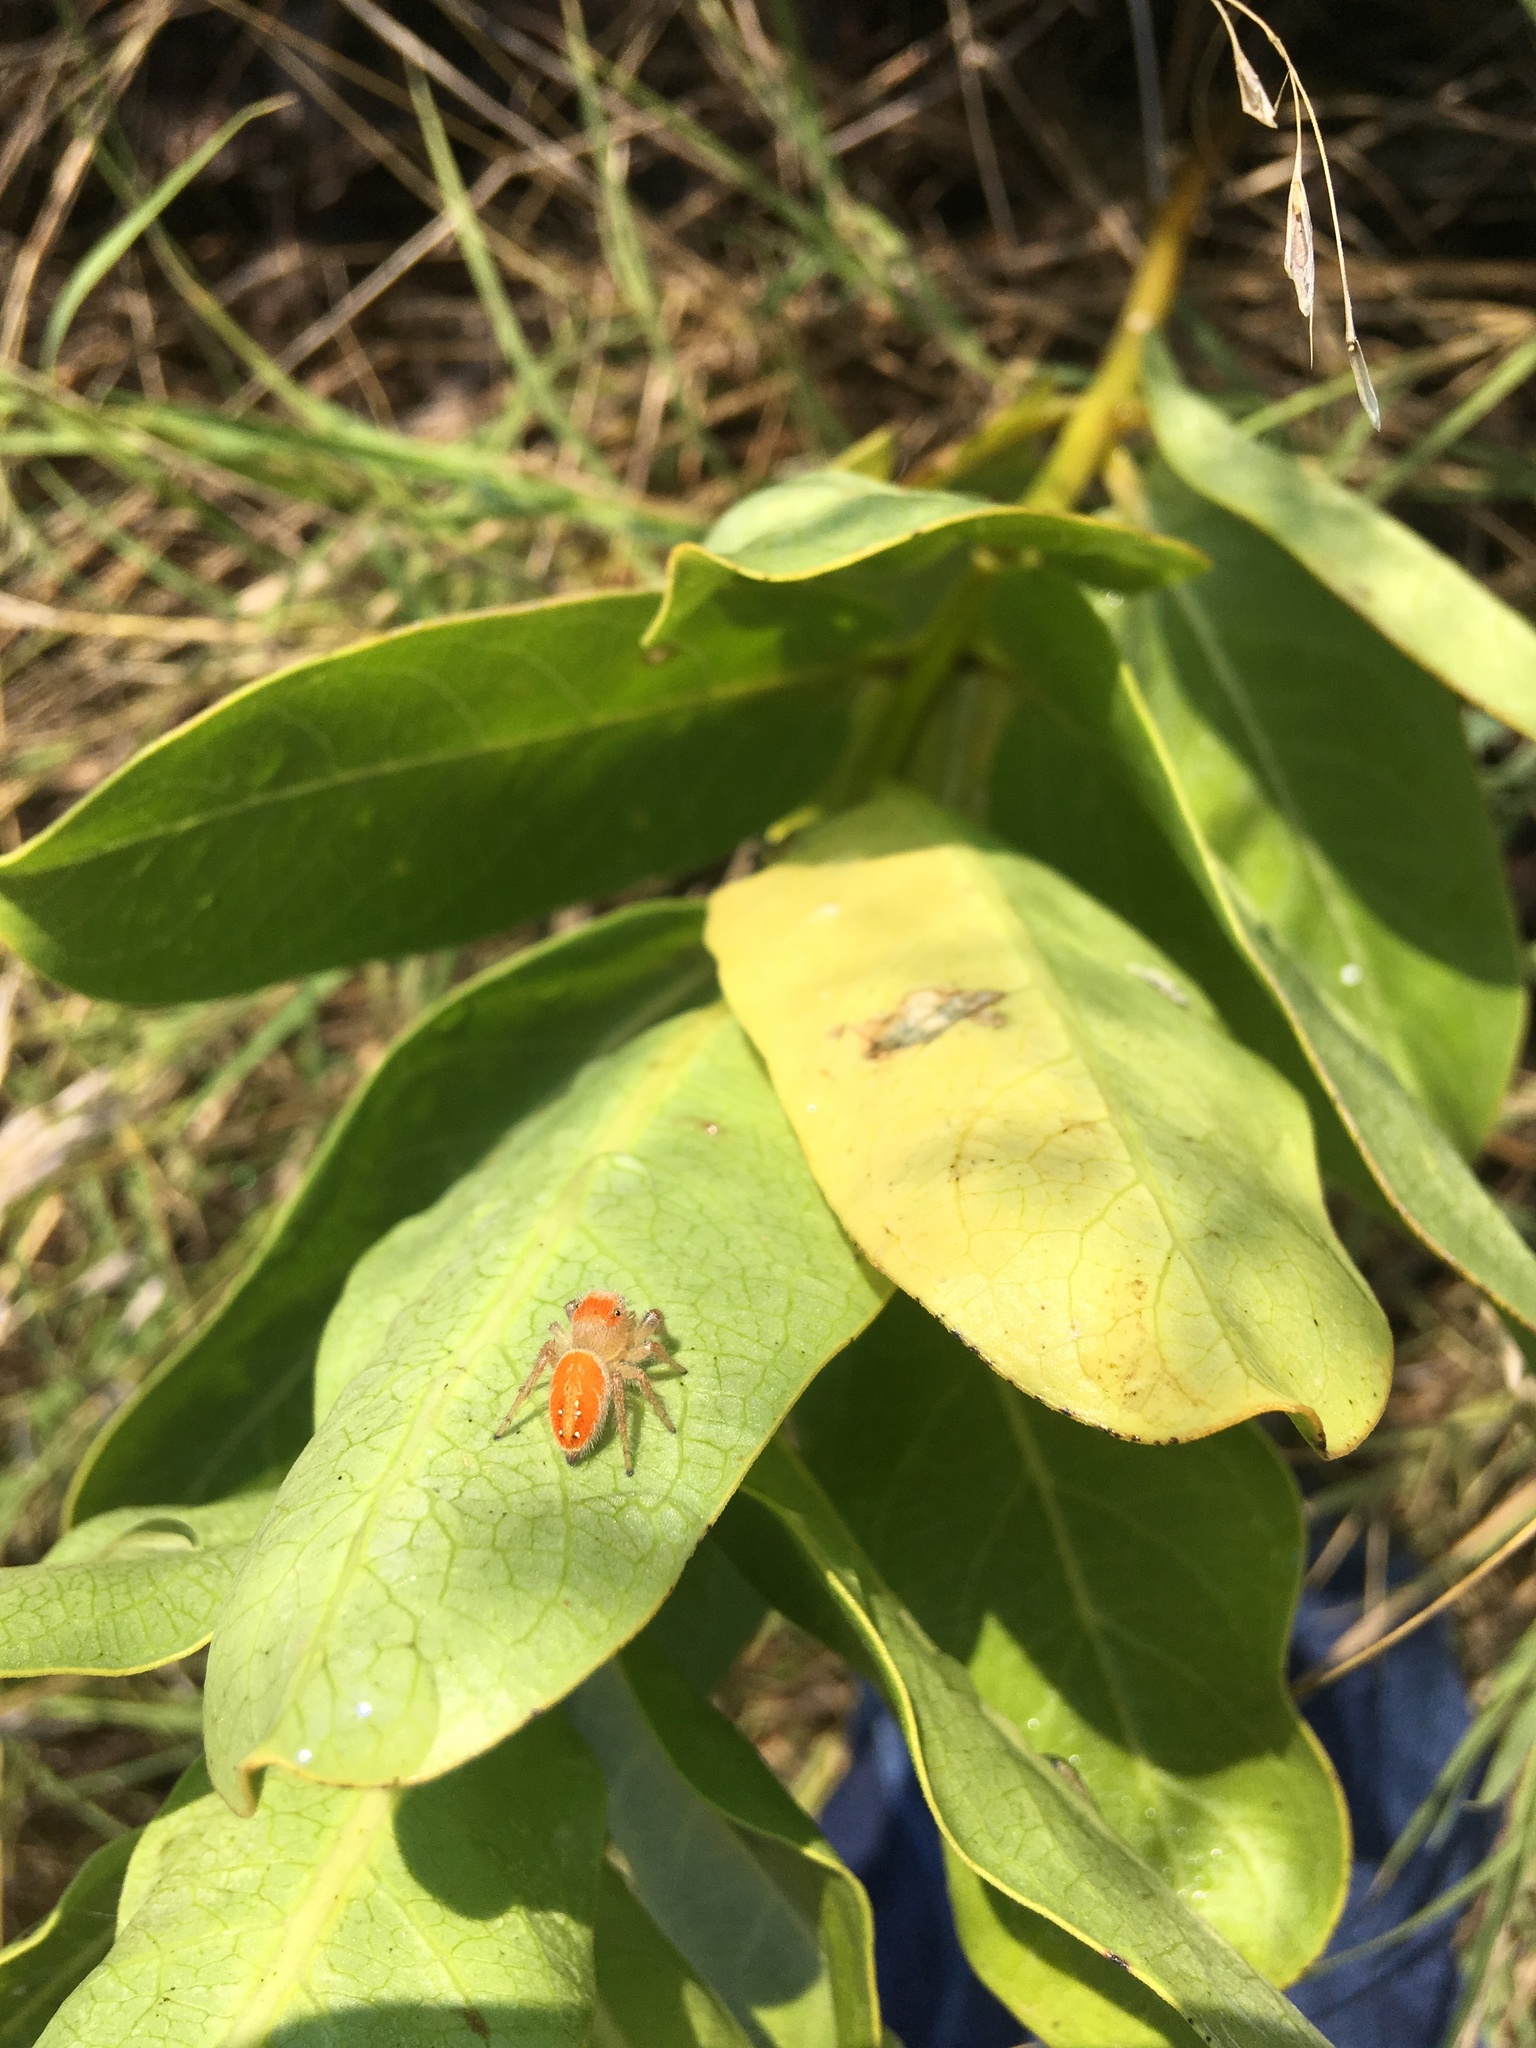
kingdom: Animalia
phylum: Arthropoda
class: Arachnida
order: Araneae
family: Salticidae
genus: Phidippus
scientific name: Phidippus cardinalis
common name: Cardinal jumper
